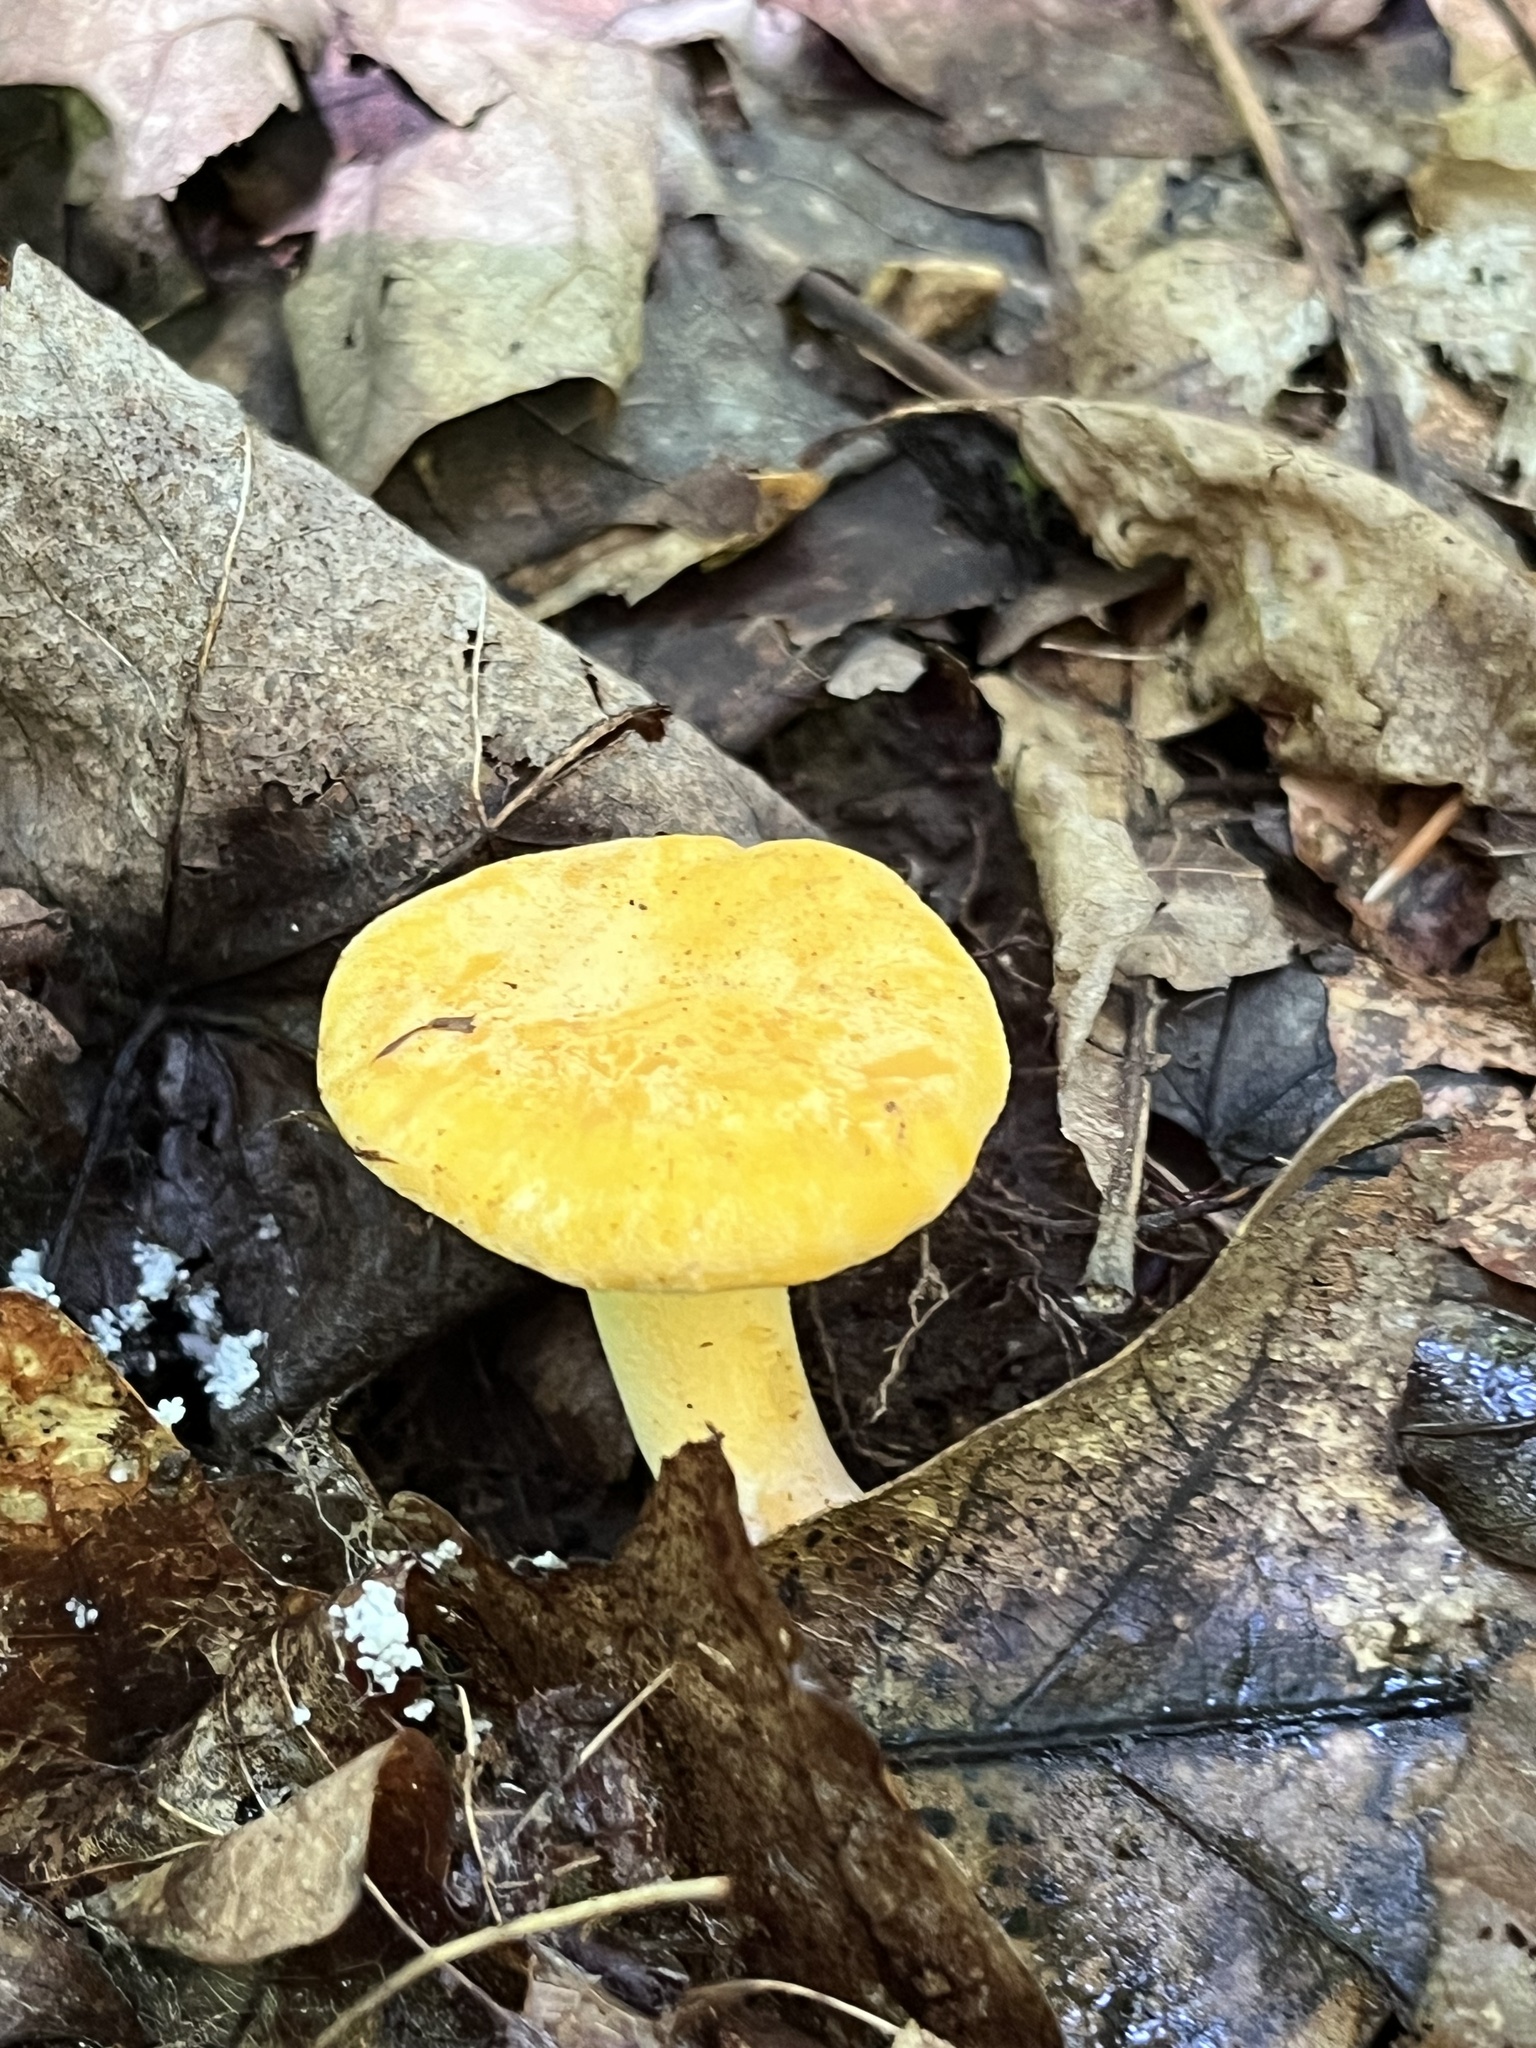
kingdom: Fungi
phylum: Basidiomycota
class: Agaricomycetes
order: Cantharellales
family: Hydnaceae
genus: Cantharellus
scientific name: Cantharellus lateritius
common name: Smooth chanterelle
